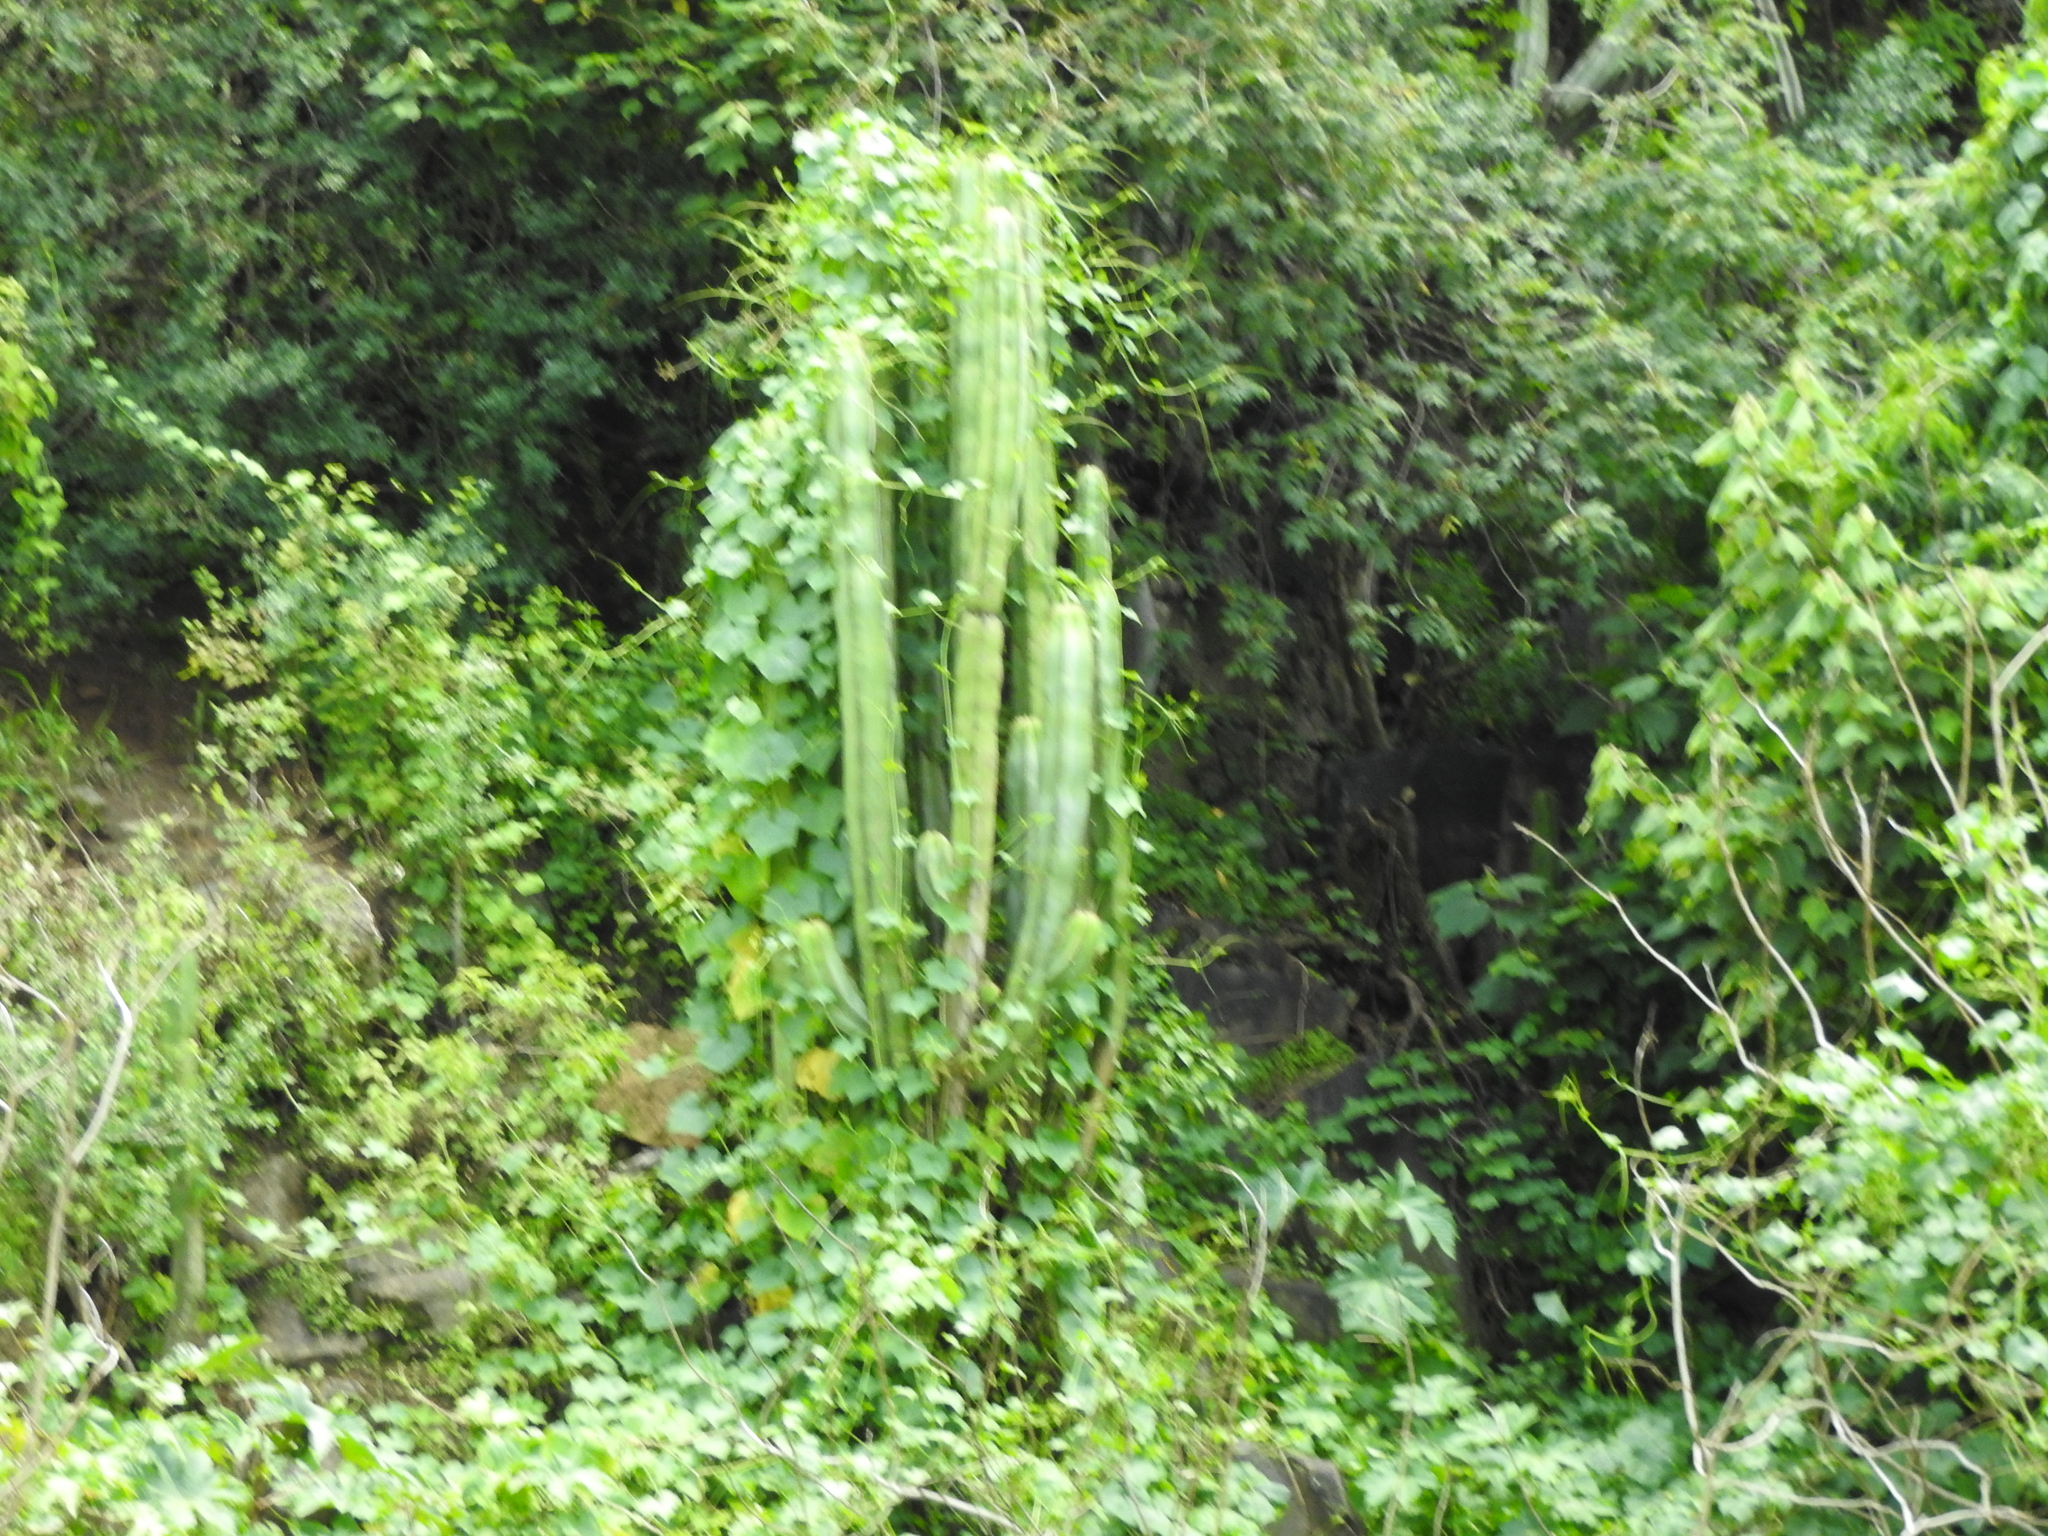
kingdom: Plantae
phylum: Tracheophyta
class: Magnoliopsida
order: Caryophyllales
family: Cactaceae
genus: Stenocereus
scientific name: Stenocereus dumortieri
